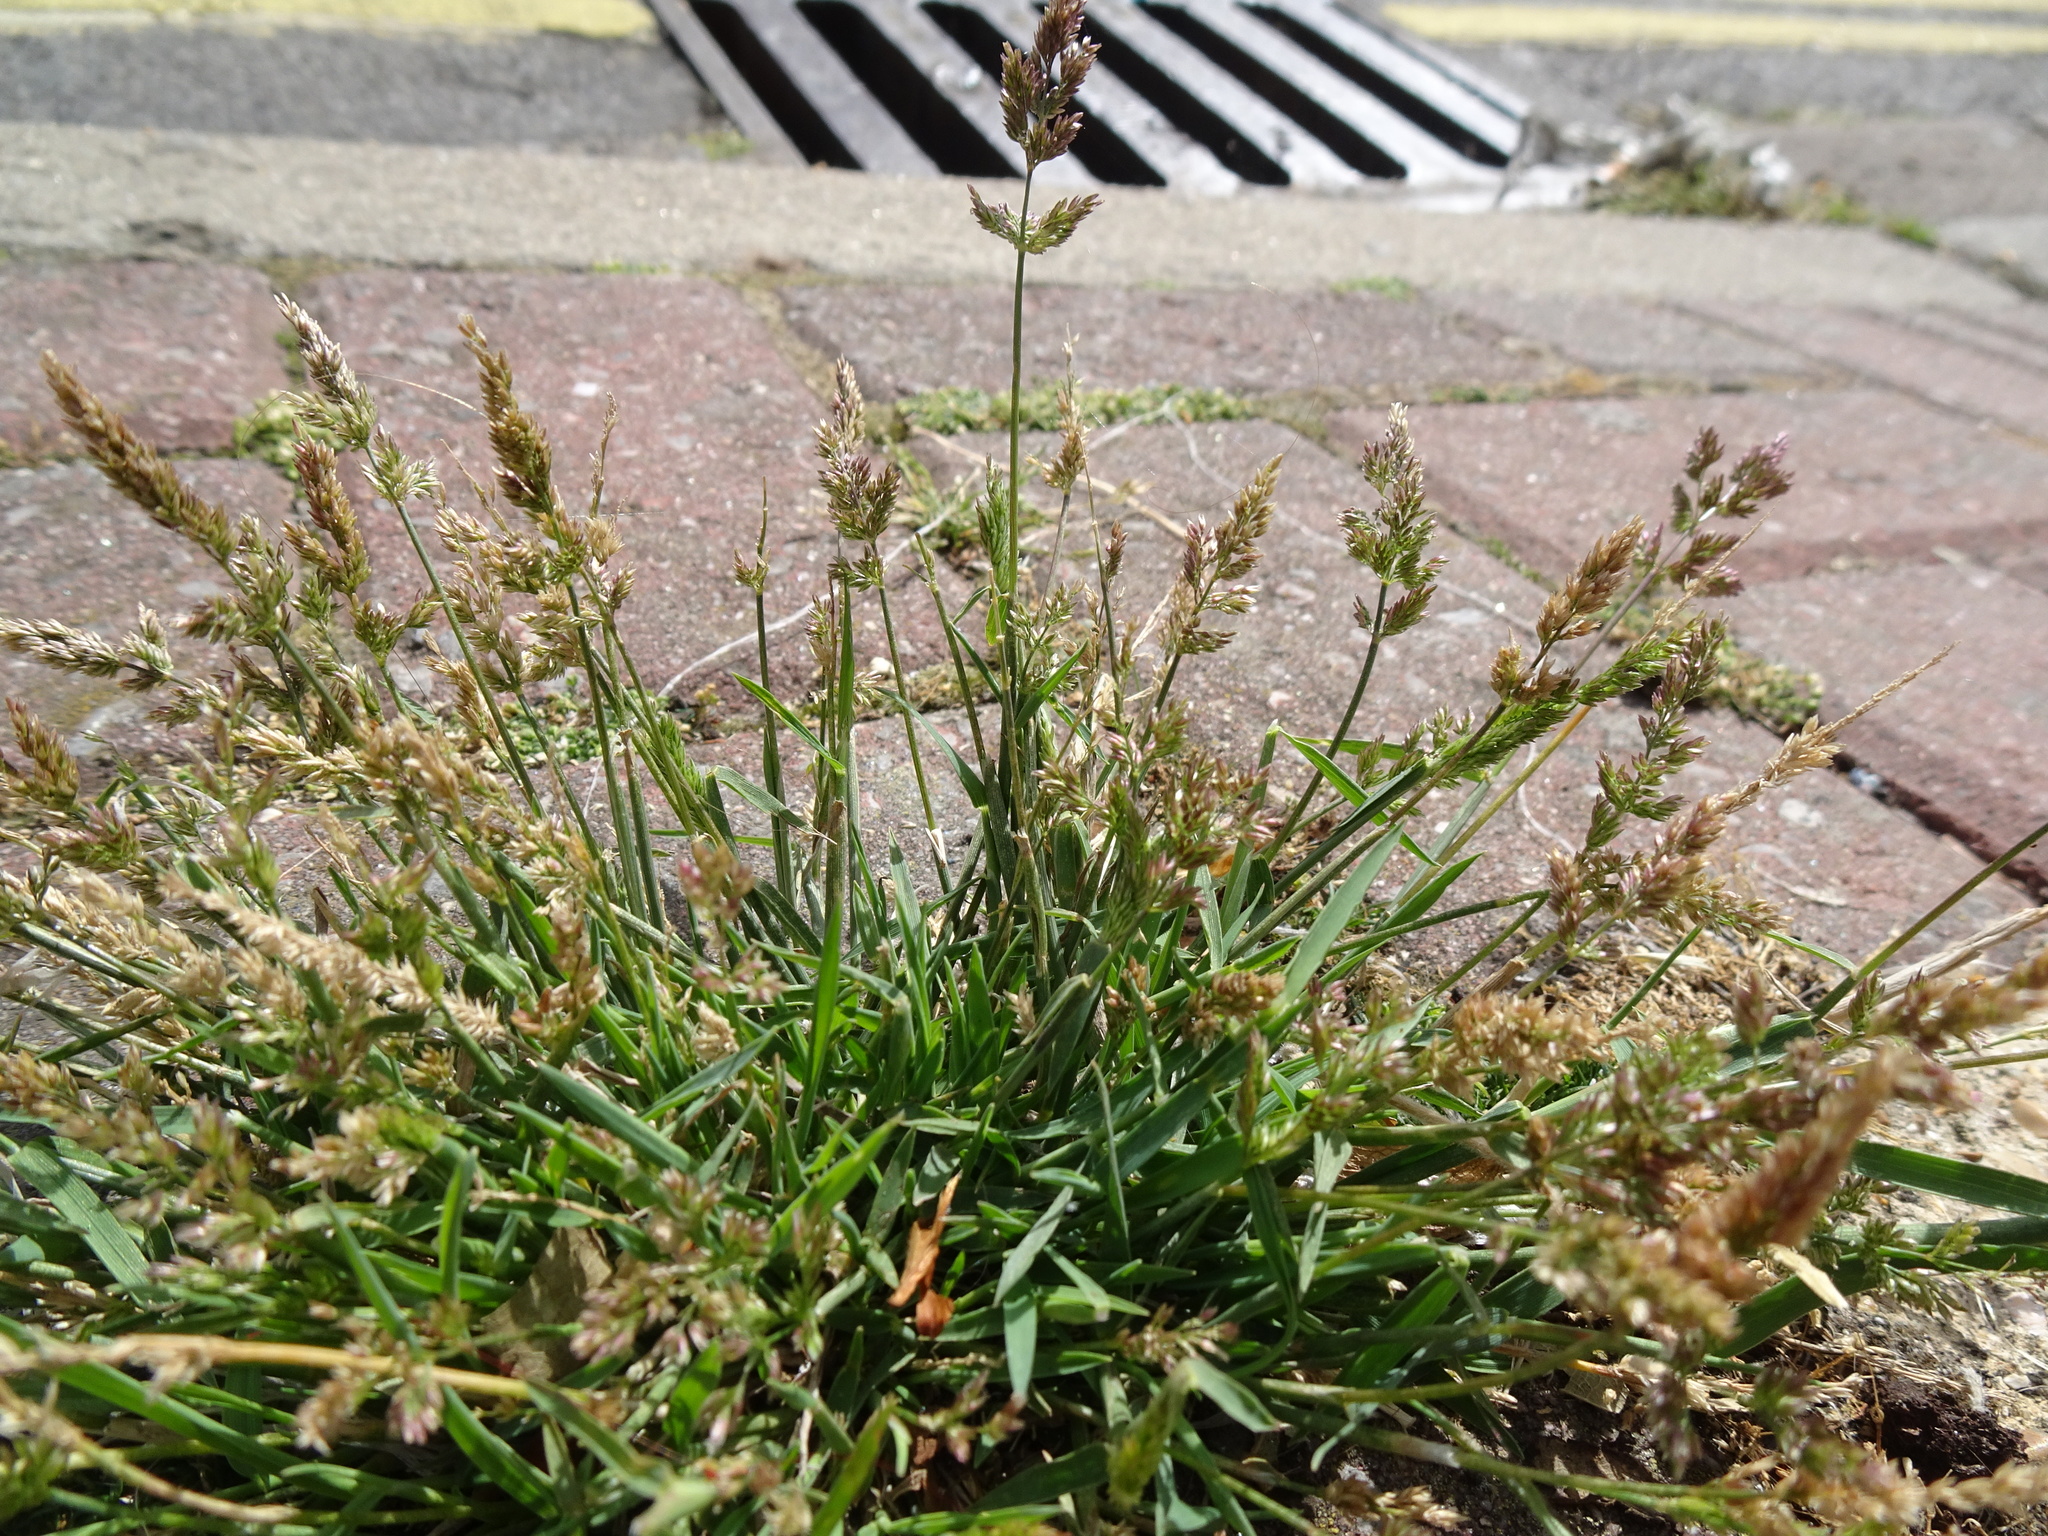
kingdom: Plantae
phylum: Tracheophyta
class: Liliopsida
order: Poales
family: Poaceae
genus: Polypogon
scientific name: Polypogon viridis
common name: Water bent
